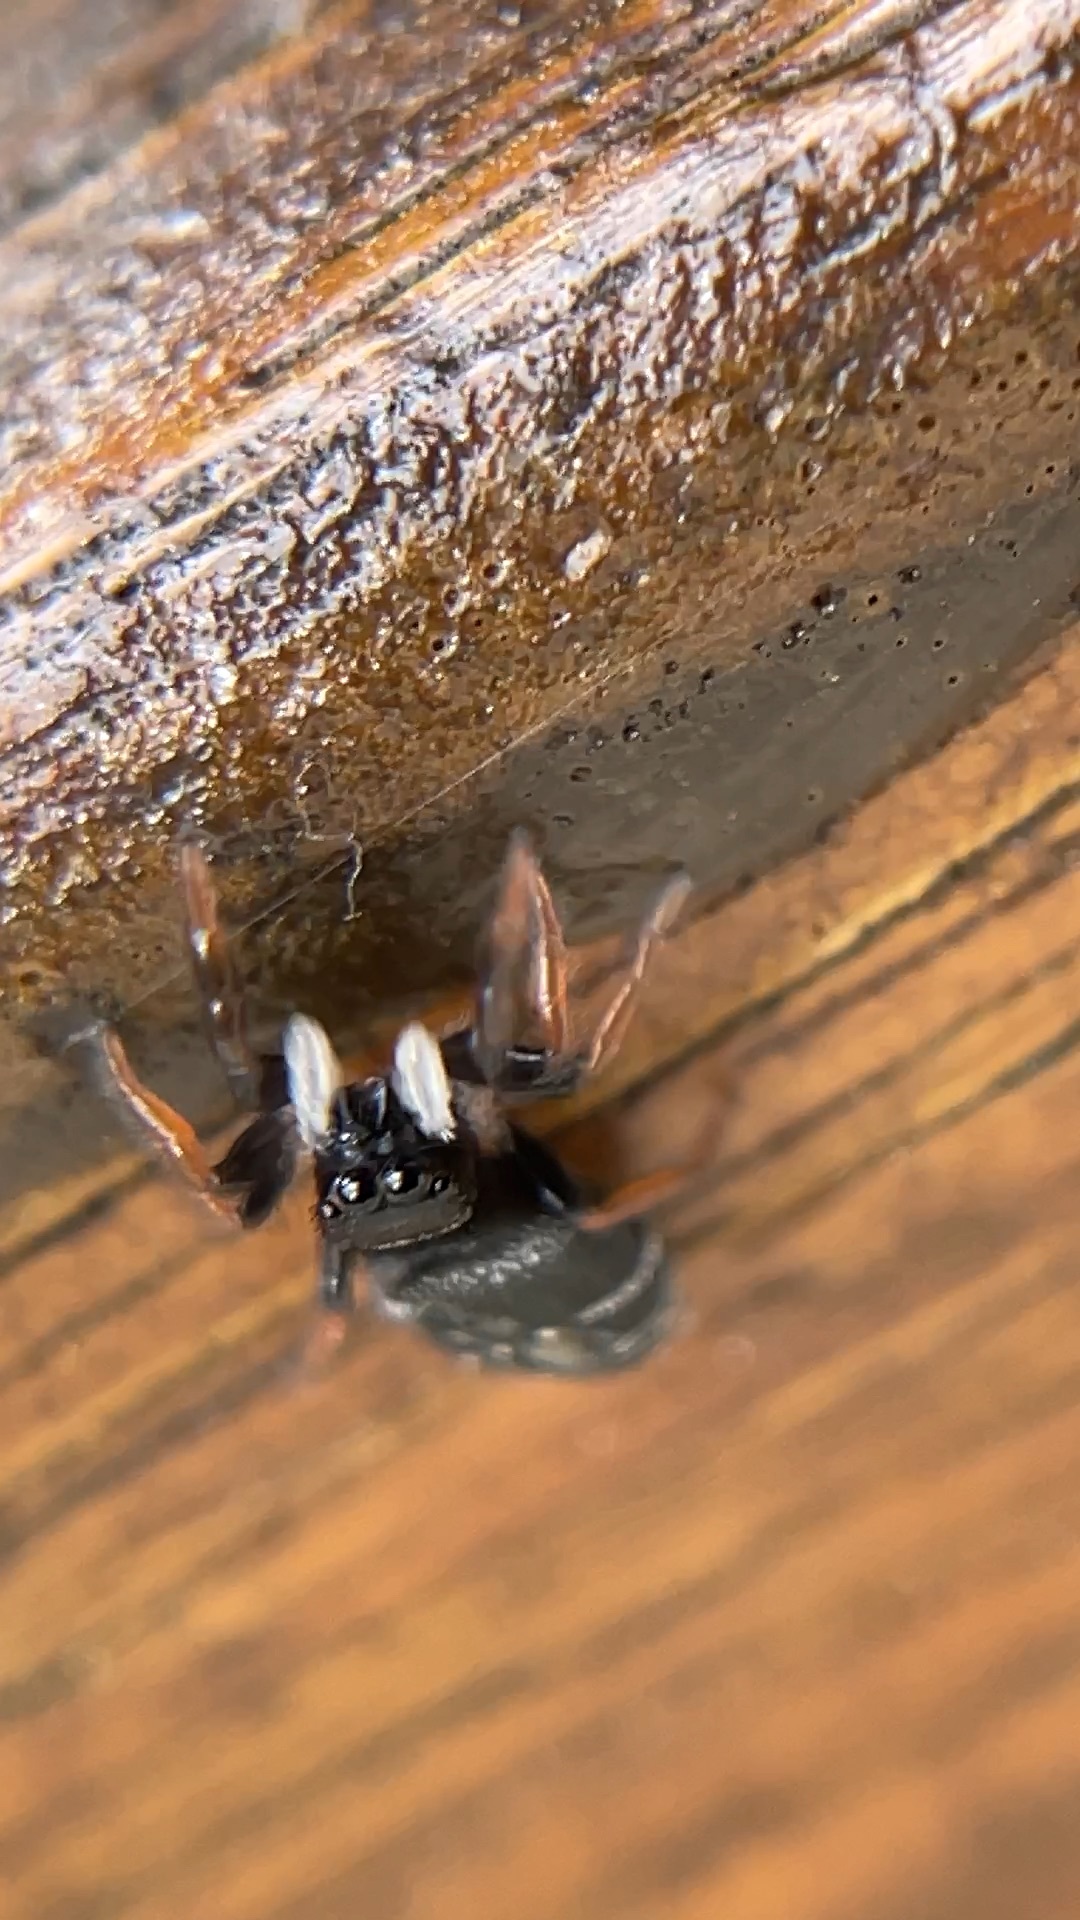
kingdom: Animalia
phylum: Arthropoda
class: Arachnida
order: Araneae
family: Salticidae
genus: Apricia
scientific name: Apricia jovialis
